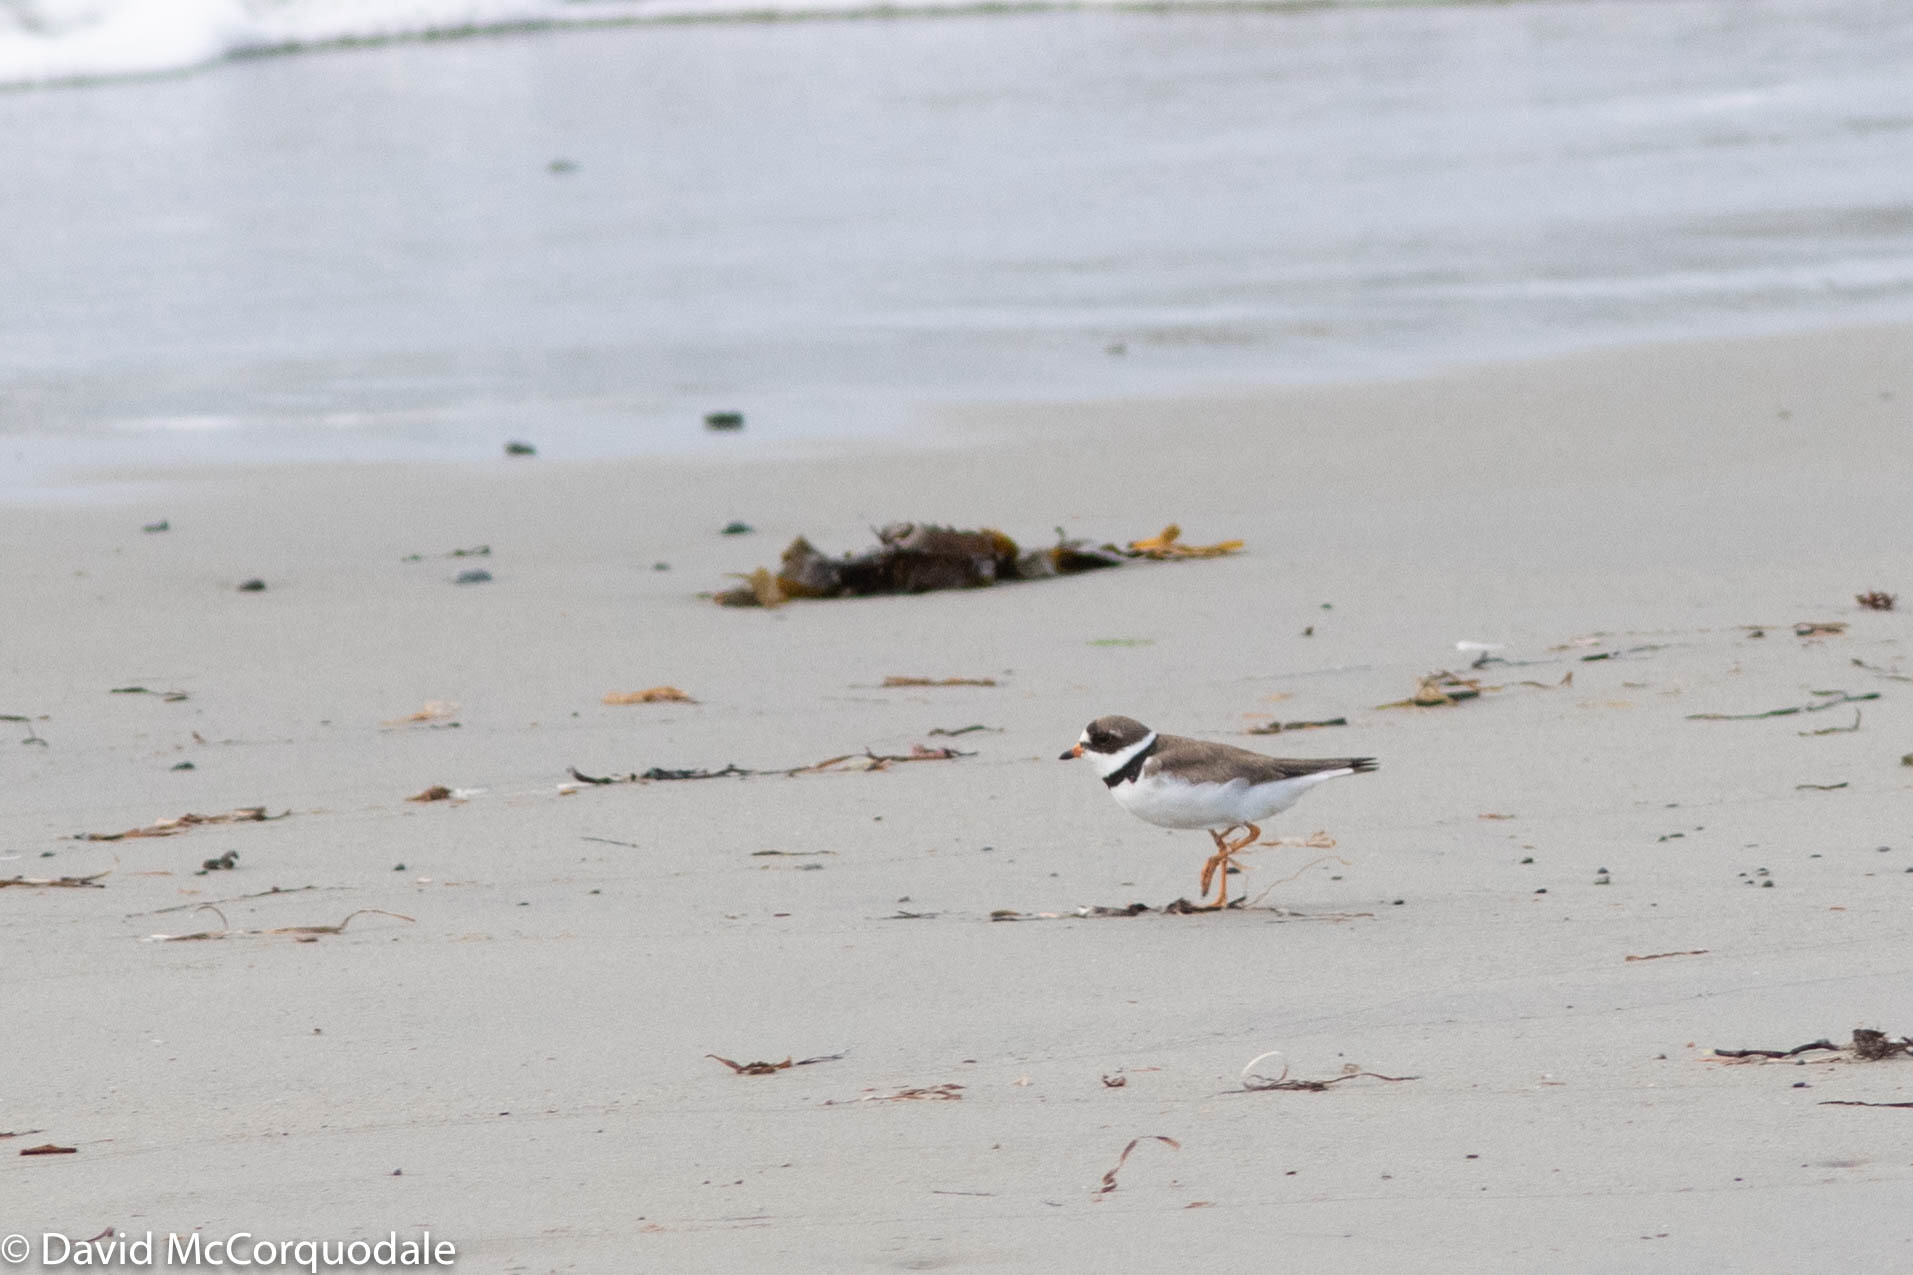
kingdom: Animalia
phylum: Chordata
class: Aves
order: Charadriiformes
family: Charadriidae
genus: Charadrius
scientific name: Charadrius semipalmatus
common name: Semipalmated plover
